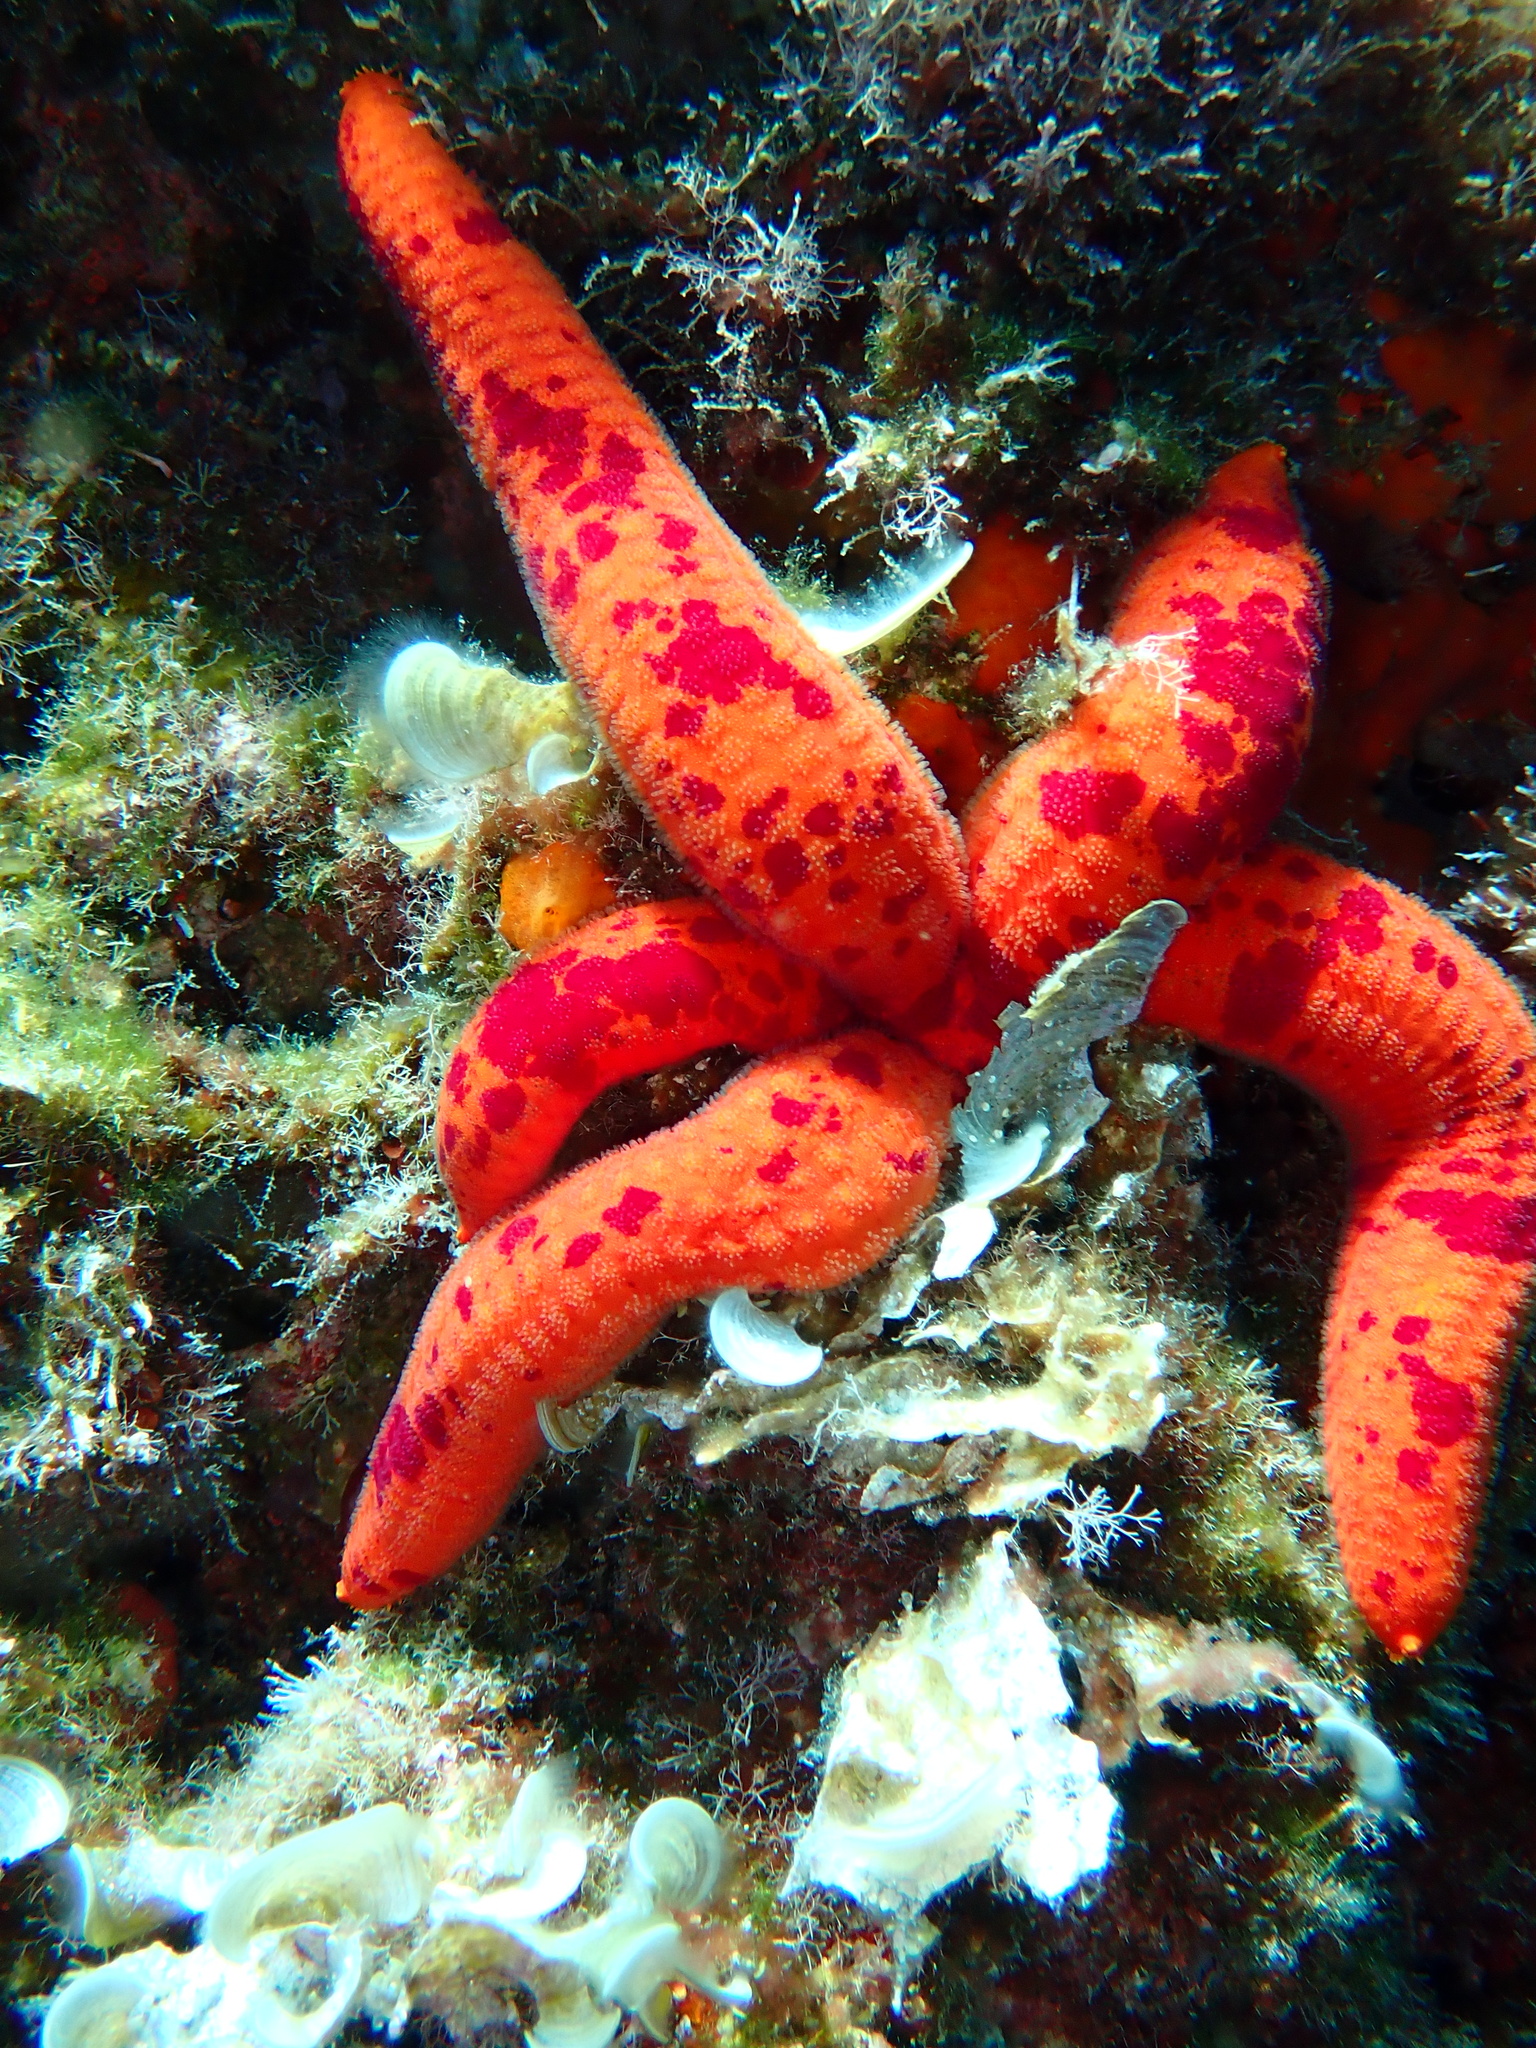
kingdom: Animalia
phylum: Echinodermata
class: Asteroidea
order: Valvatida
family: Ophidiasteridae
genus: Ophidiaster
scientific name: Ophidiaster ophidianus
